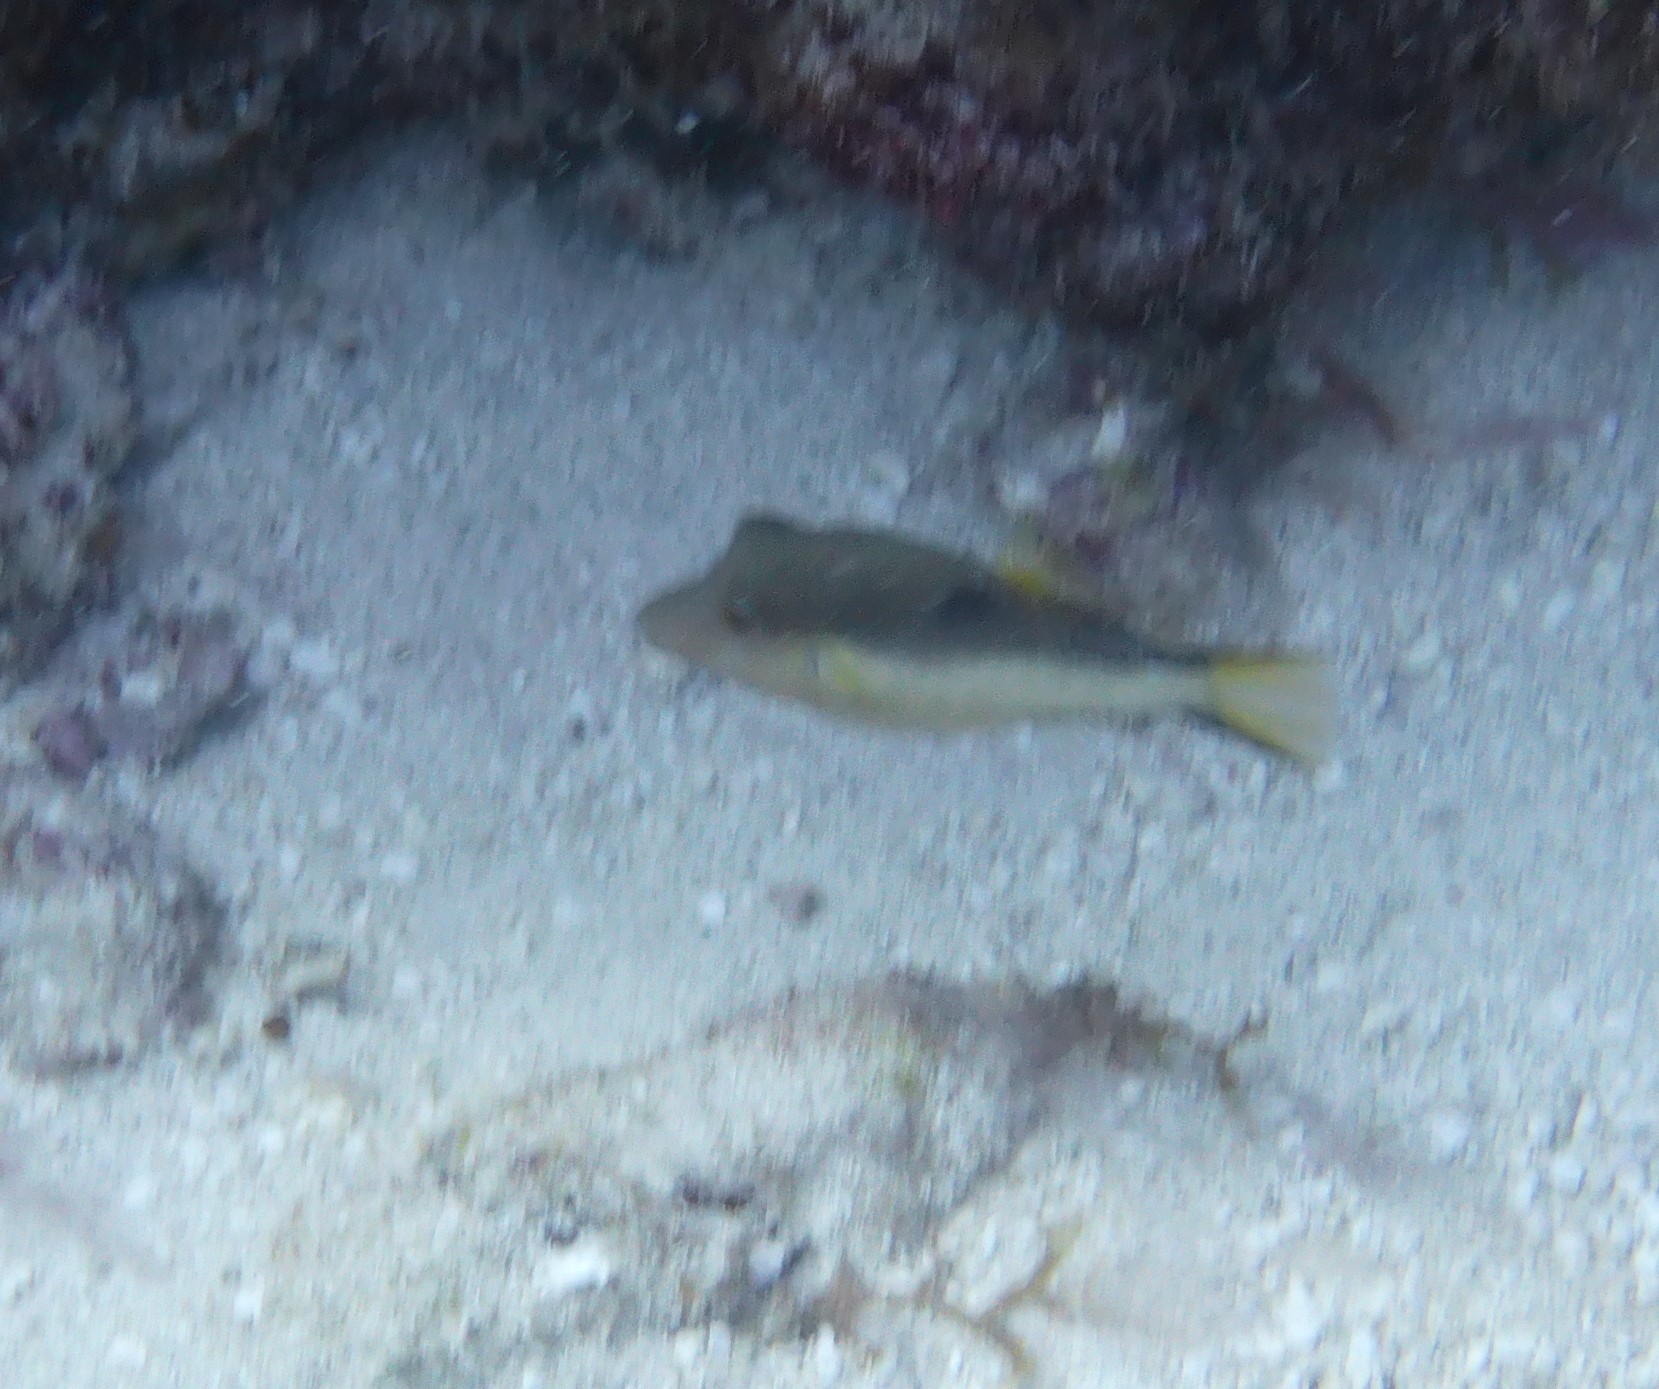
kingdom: Animalia
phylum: Chordata
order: Tetraodontiformes
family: Tetraodontidae
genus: Canthigaster
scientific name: Canthigaster rostrata
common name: Caribbean sharpnose-puffer
